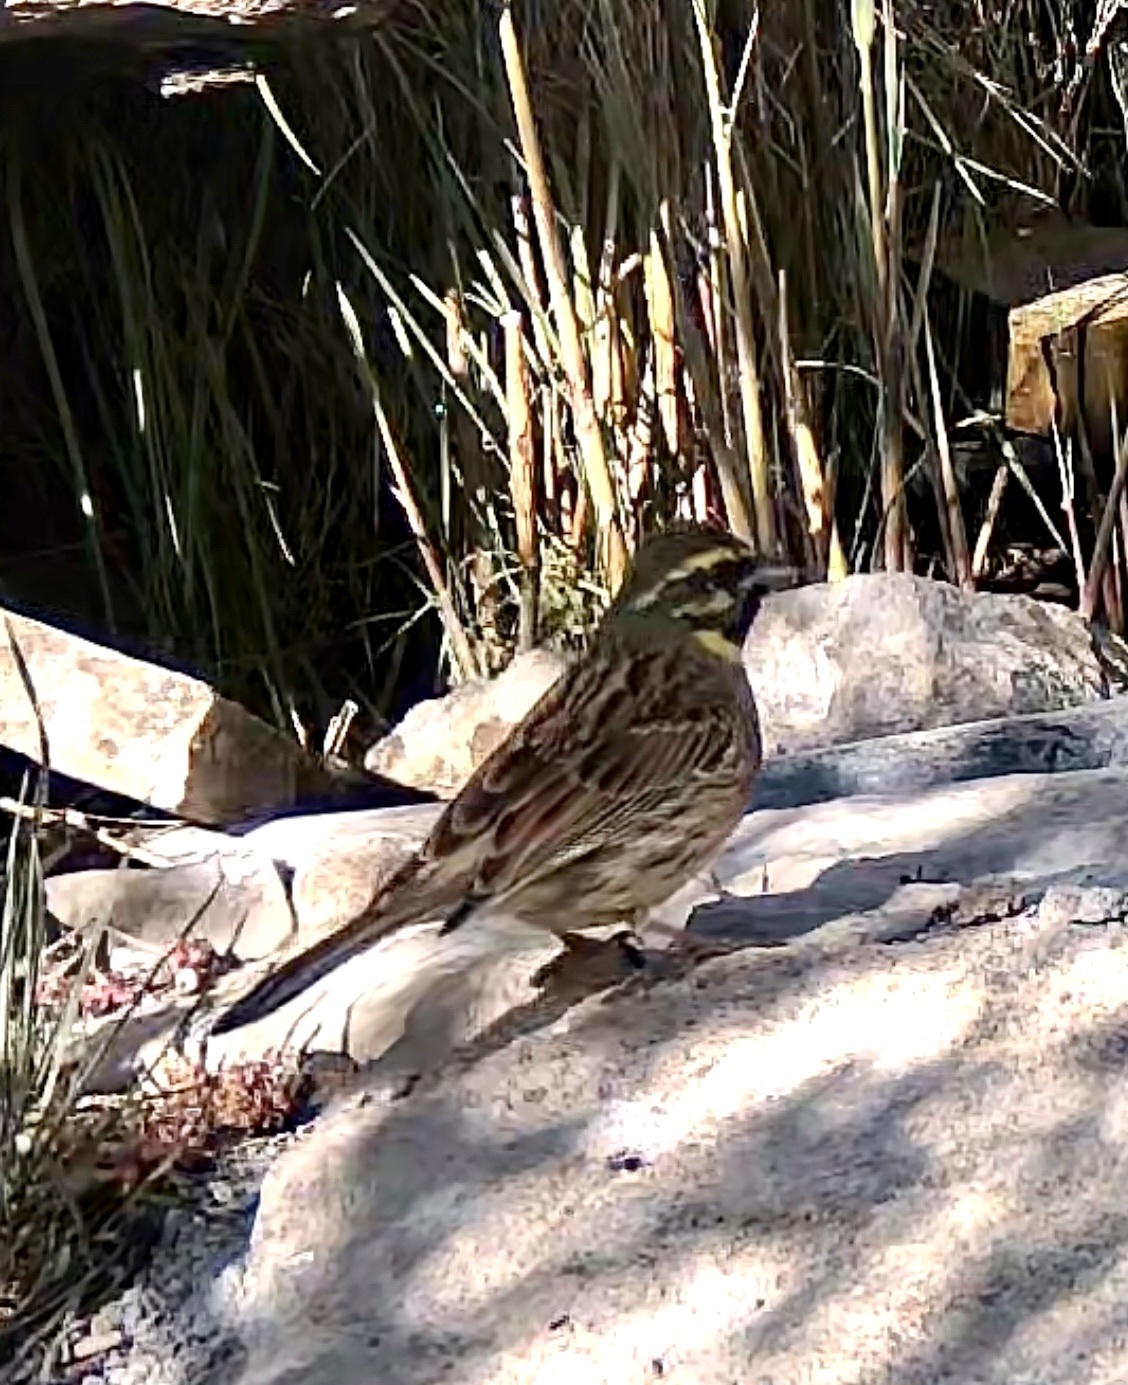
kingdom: Animalia
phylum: Chordata
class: Aves
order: Passeriformes
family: Emberizidae
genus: Emberiza
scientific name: Emberiza cirlus
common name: Cirl bunting
